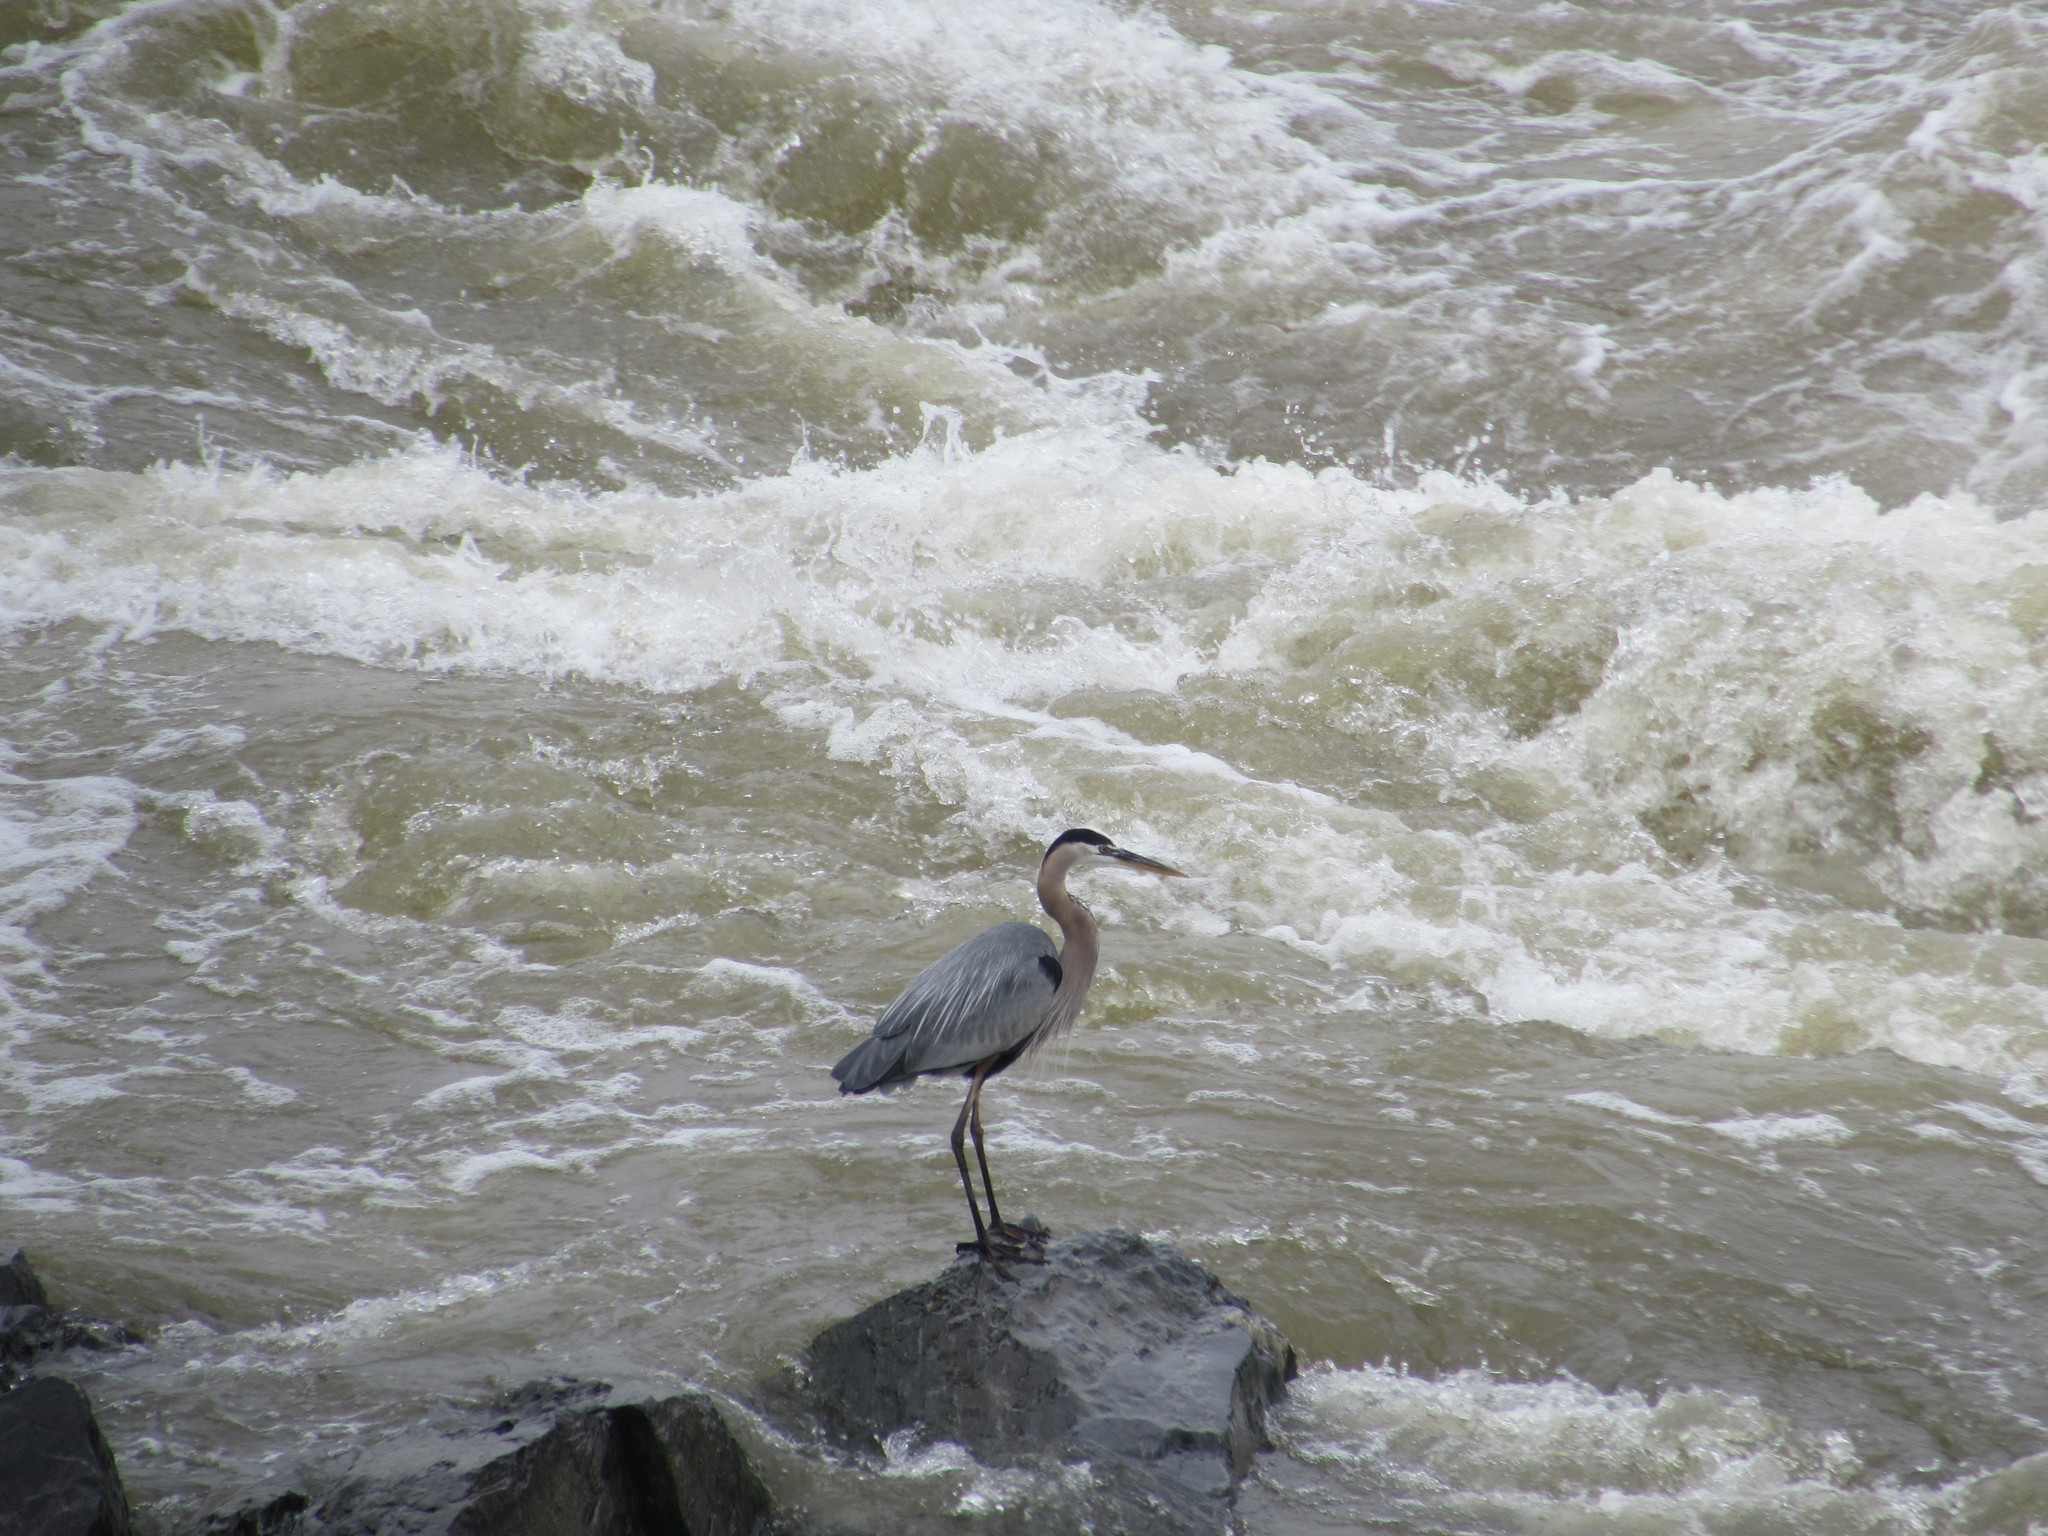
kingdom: Animalia
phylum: Chordata
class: Aves
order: Pelecaniformes
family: Ardeidae
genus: Ardea
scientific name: Ardea herodias
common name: Great blue heron
